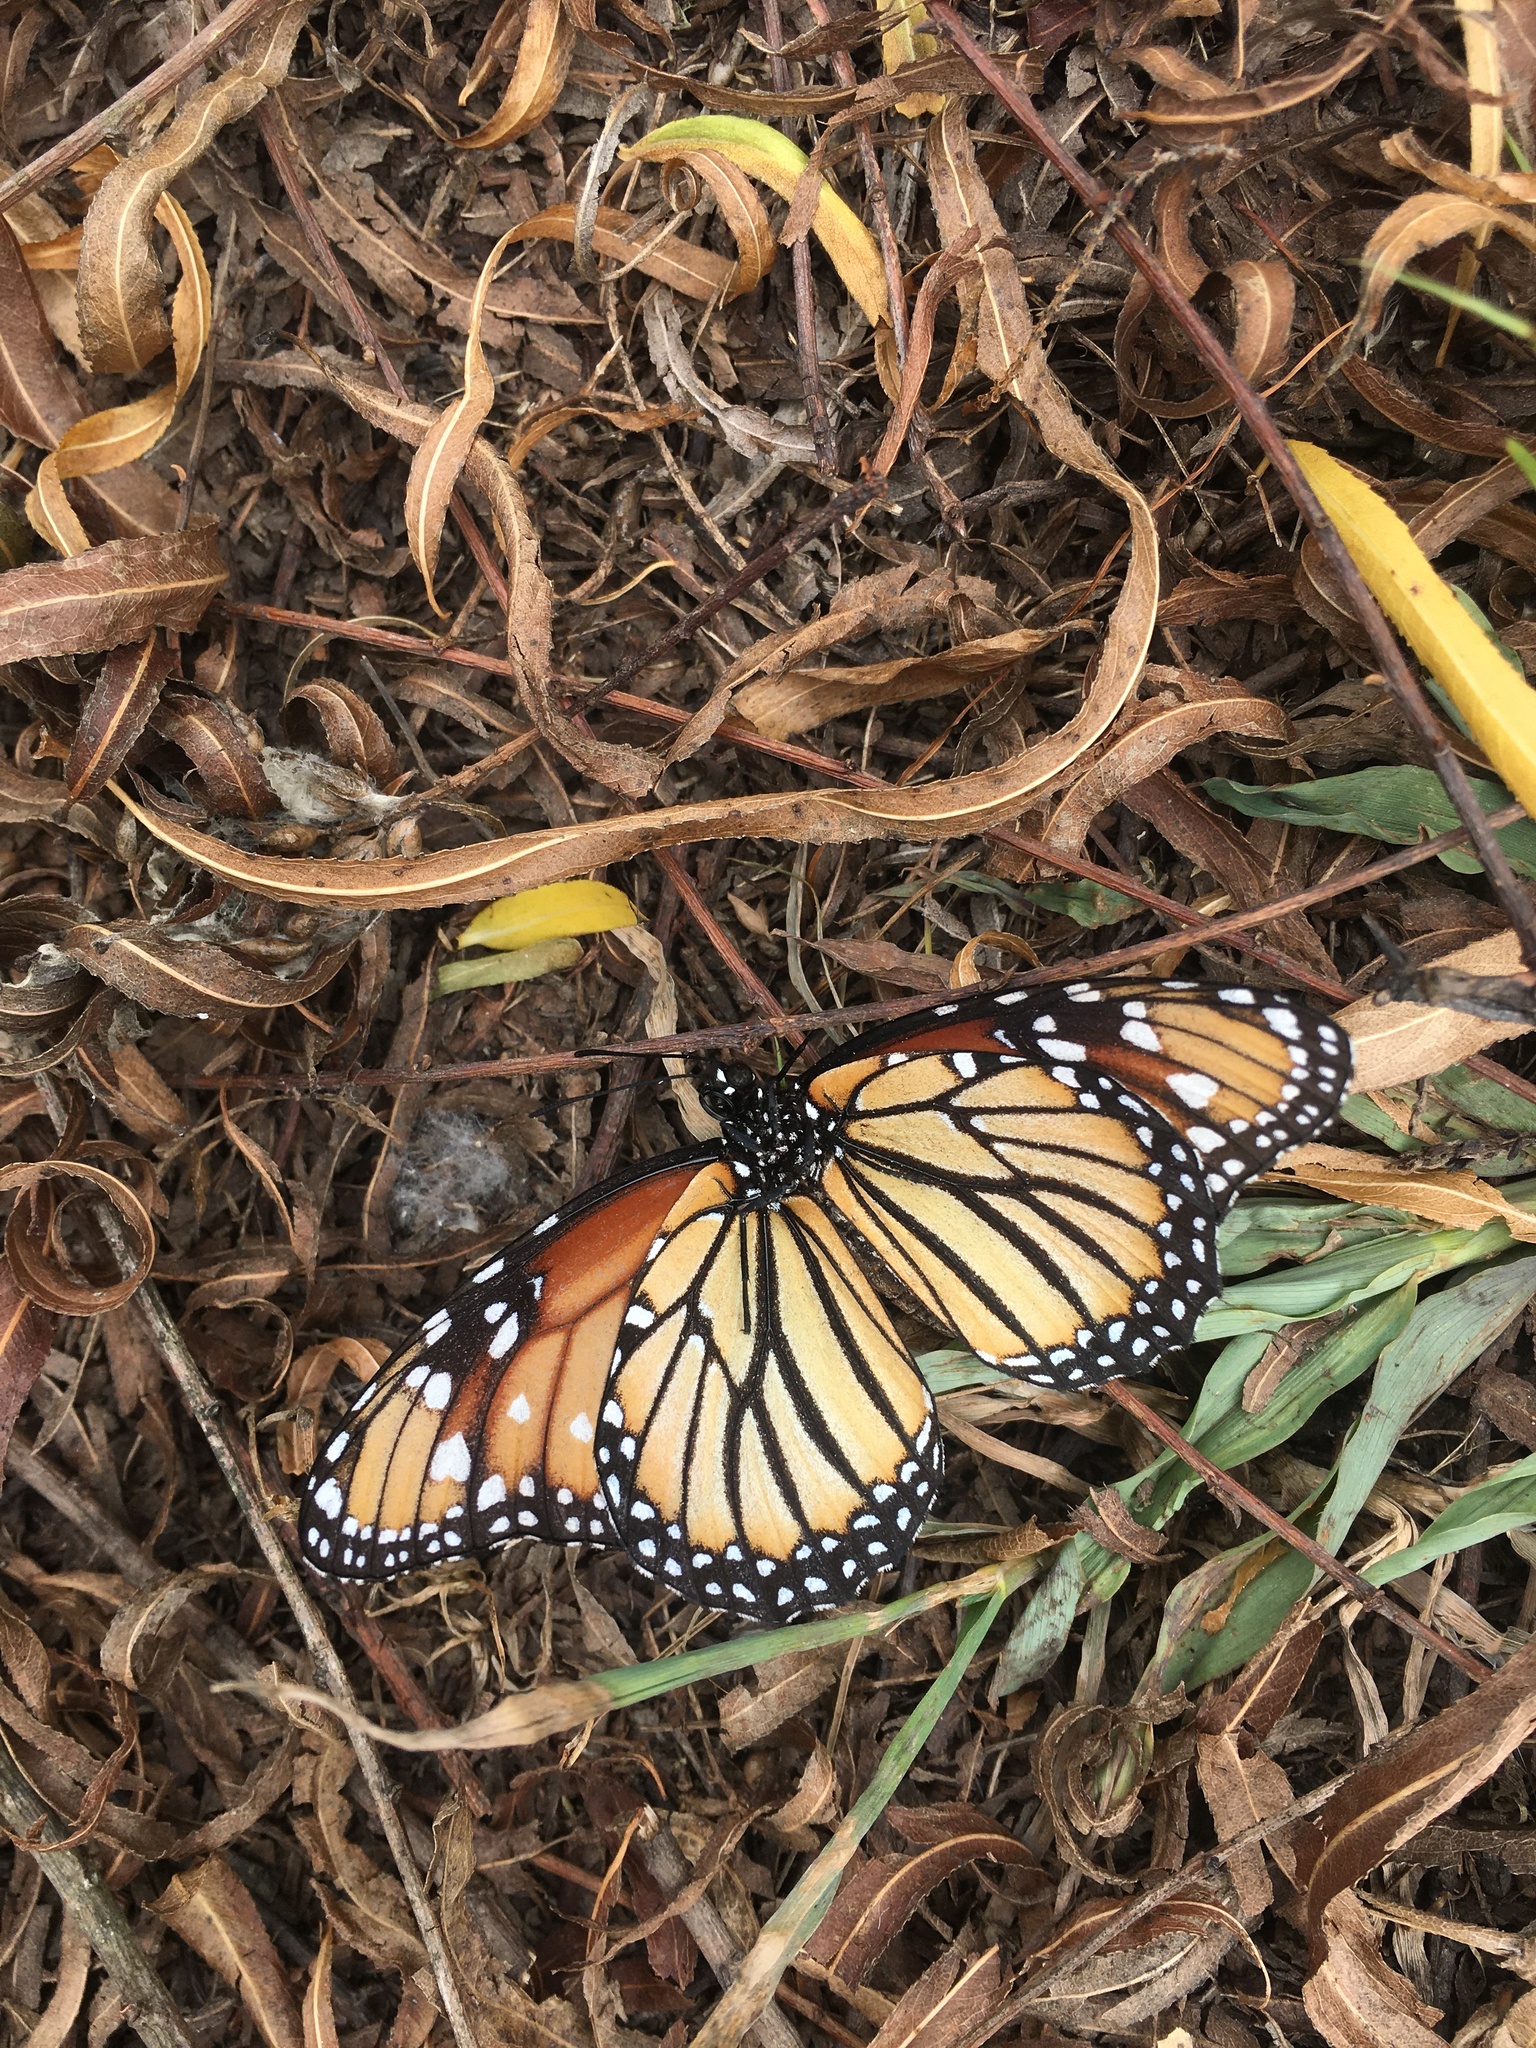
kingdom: Animalia
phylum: Arthropoda
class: Insecta
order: Lepidoptera
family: Nymphalidae
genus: Danaus
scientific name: Danaus plexippus
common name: Monarch
